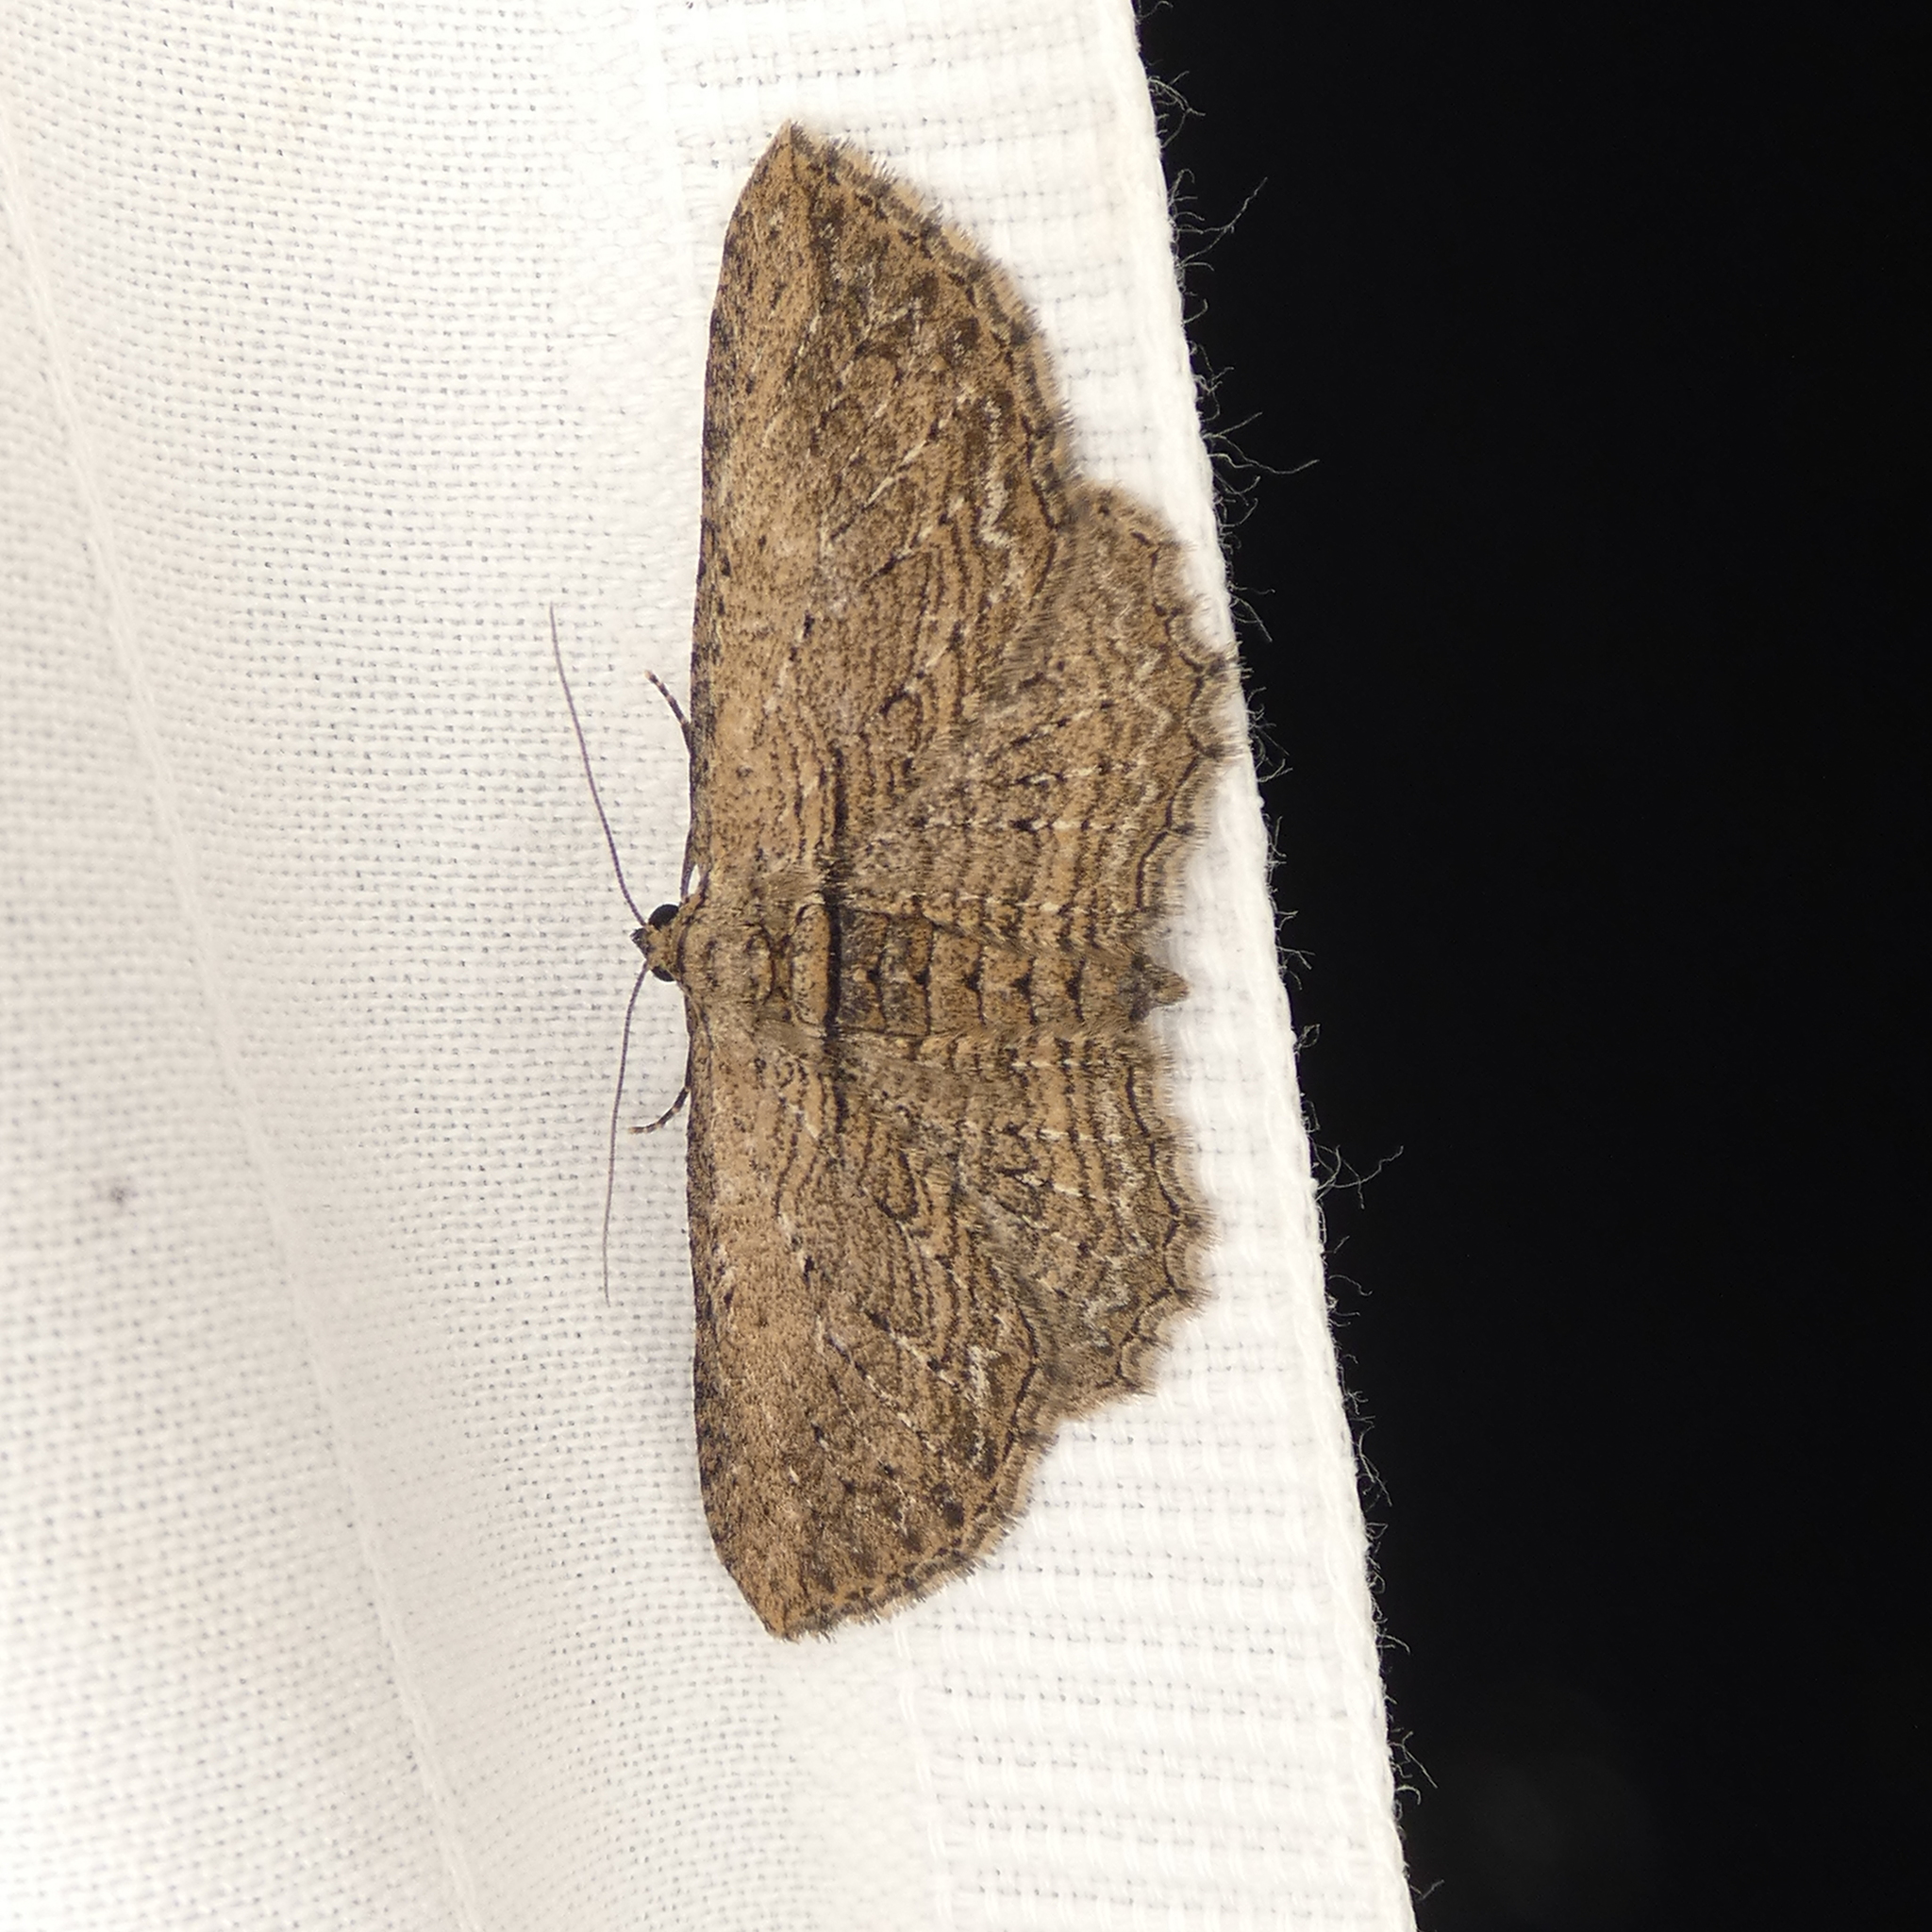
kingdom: Animalia
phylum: Arthropoda
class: Insecta
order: Lepidoptera
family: Geometridae
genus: Horisme
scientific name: Horisme intestinata
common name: Brown bark carpet
